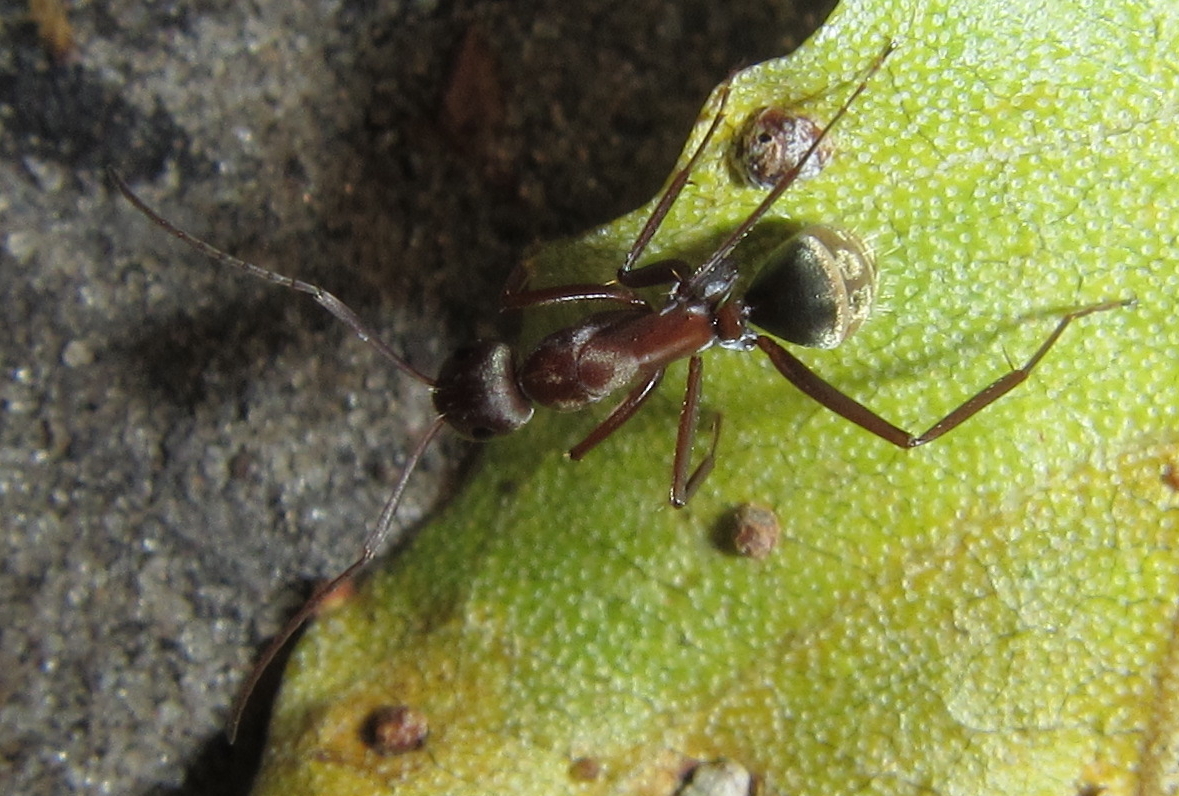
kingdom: Animalia
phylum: Arthropoda
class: Insecta
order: Hymenoptera
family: Formicidae
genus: Camponotus
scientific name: Camponotus vestitus
